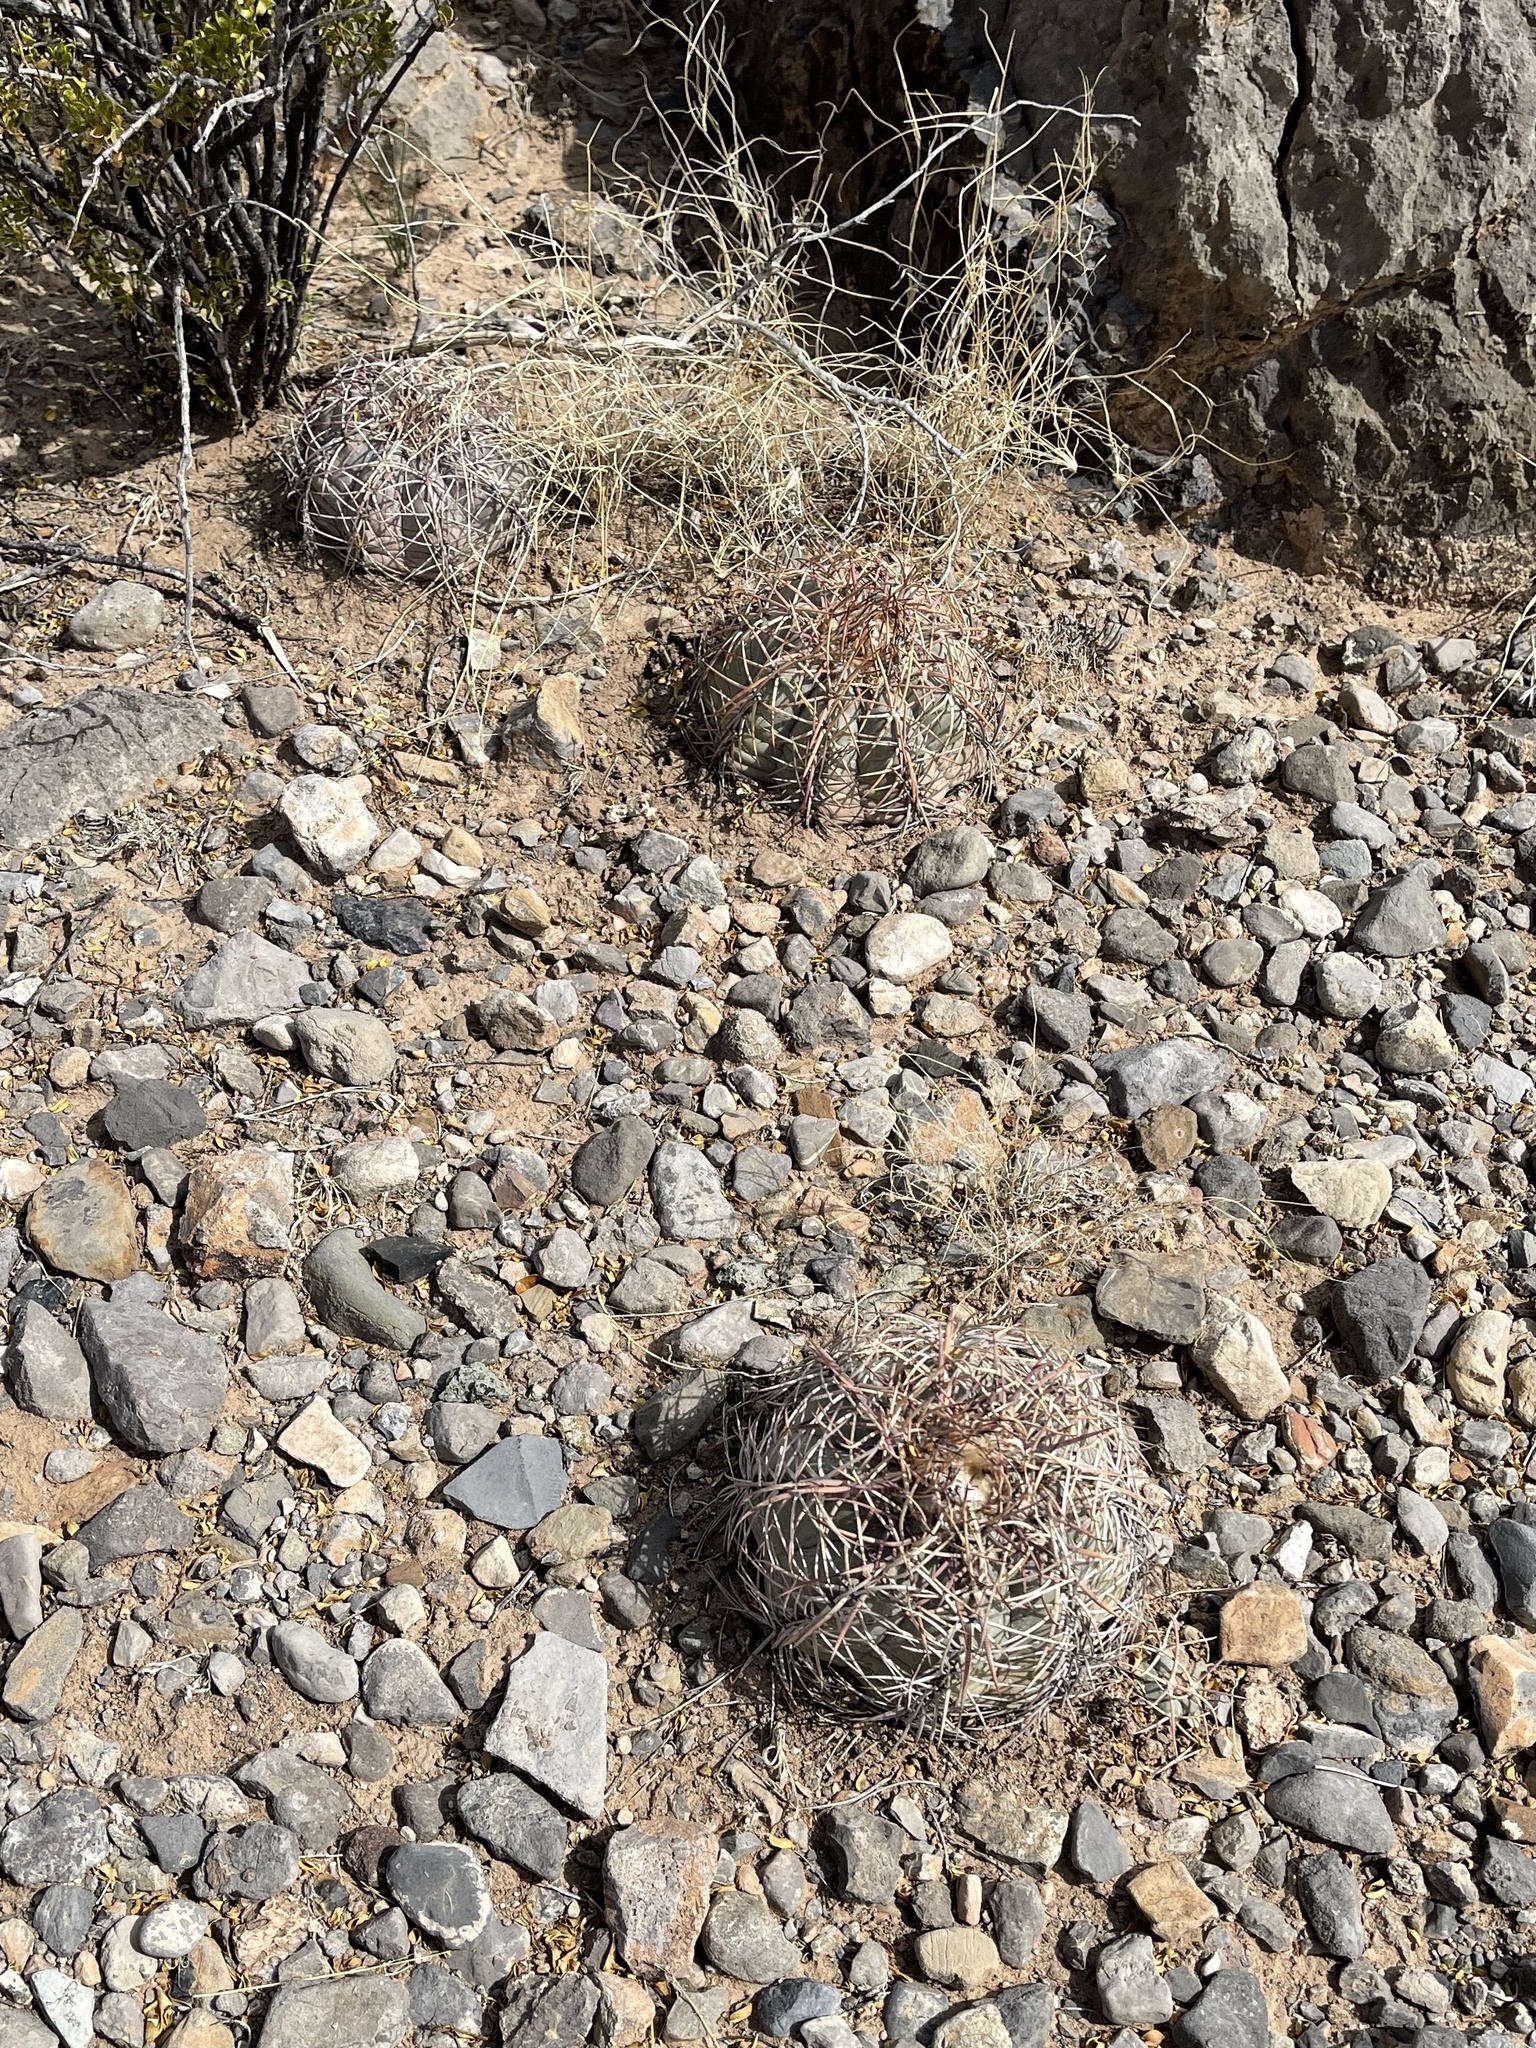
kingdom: Plantae
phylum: Tracheophyta
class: Magnoliopsida
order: Caryophyllales
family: Cactaceae
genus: Echinocactus
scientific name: Echinocactus horizonthalonius
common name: Devilshead
